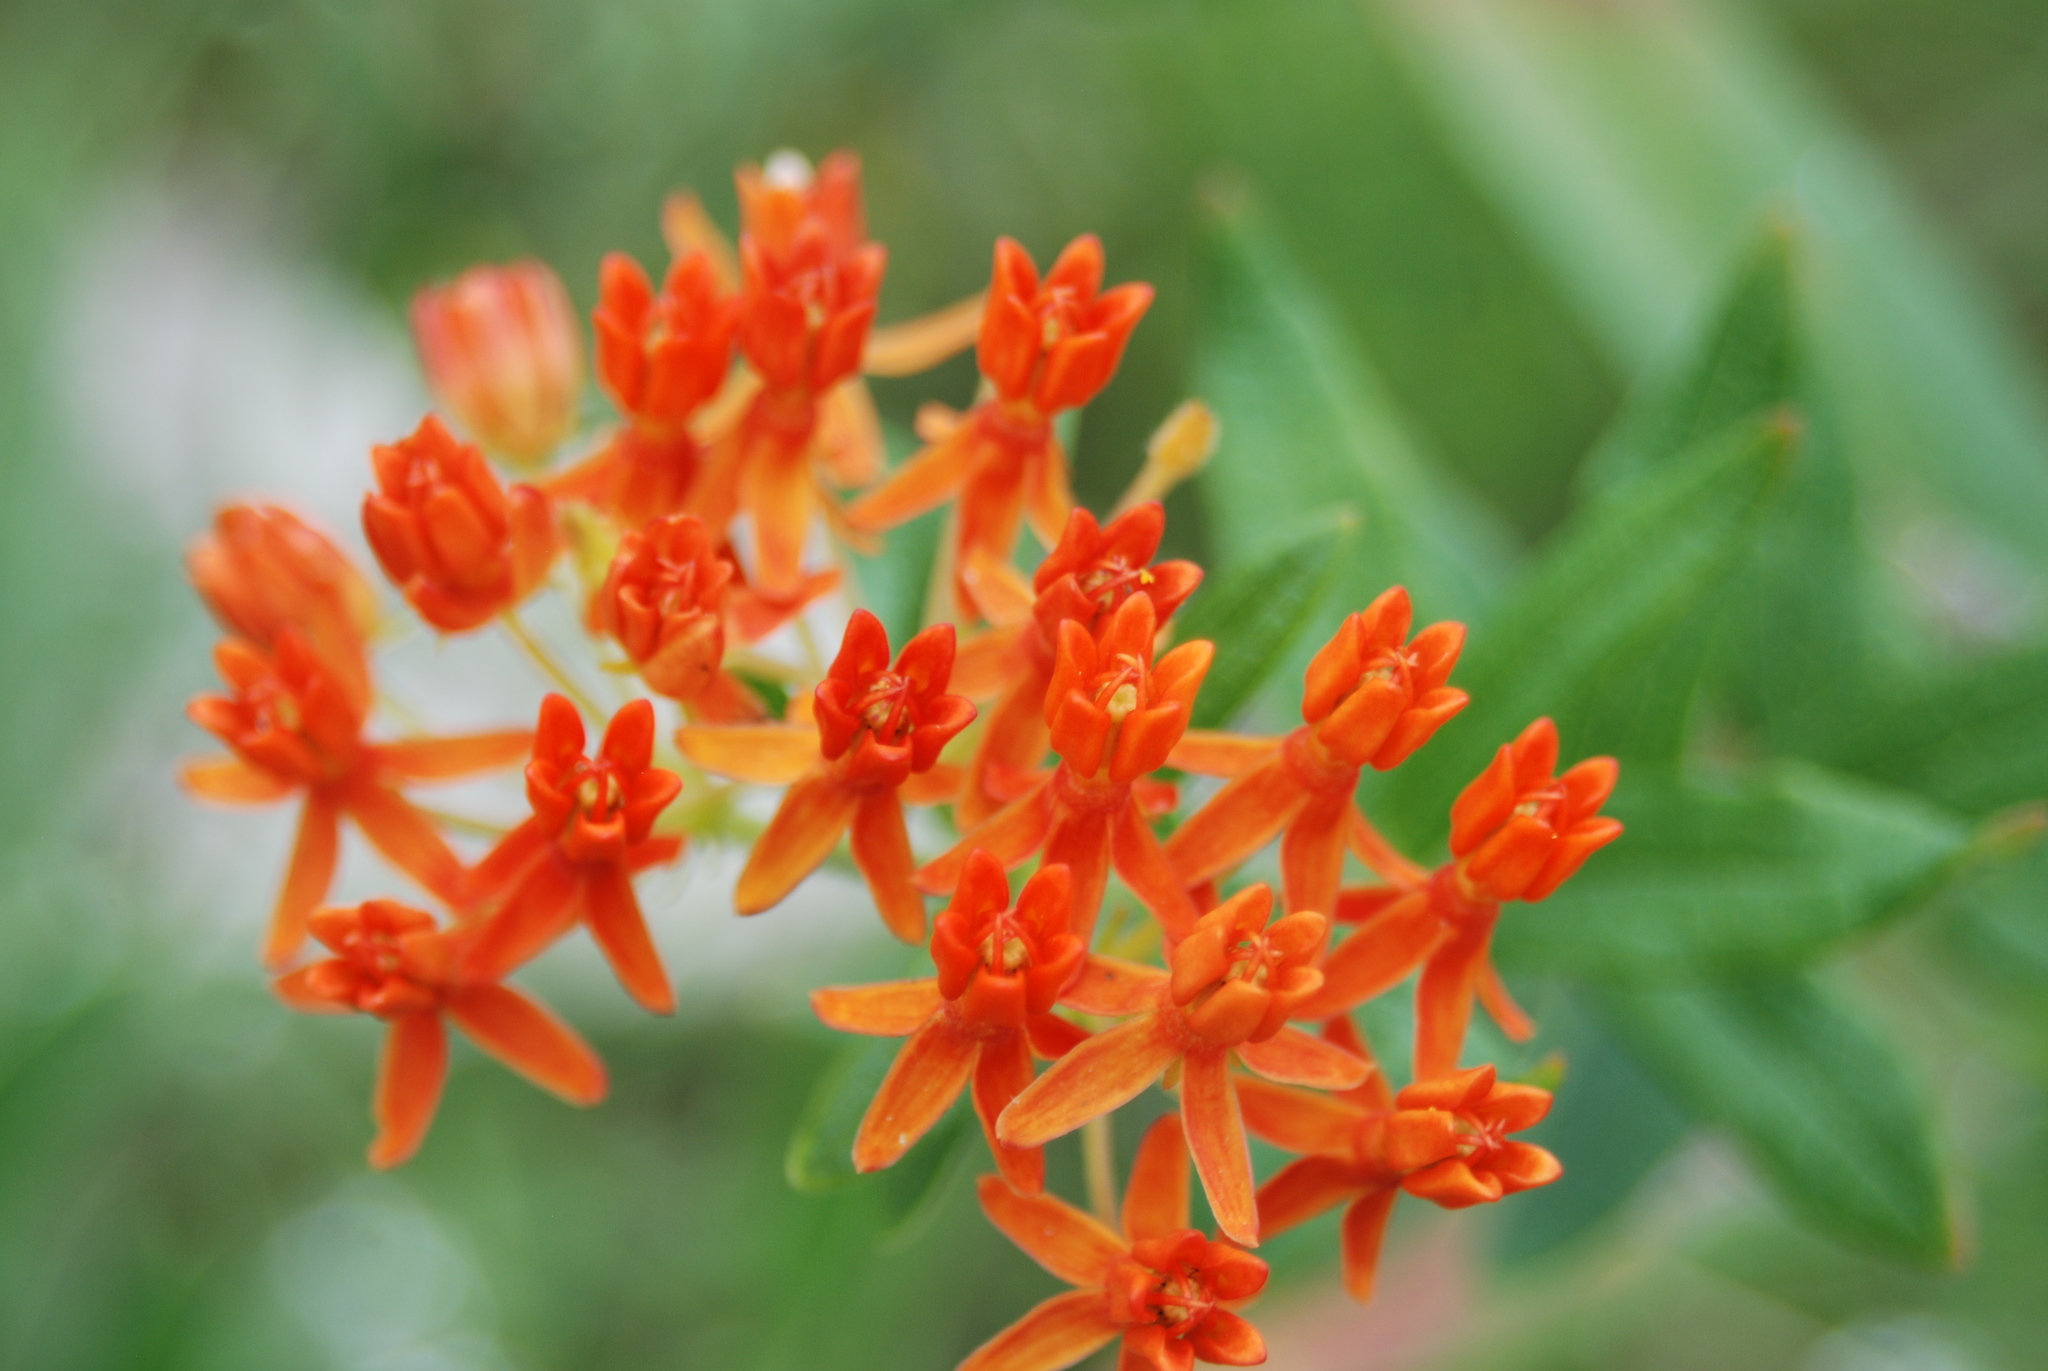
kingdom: Plantae
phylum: Tracheophyta
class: Magnoliopsida
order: Gentianales
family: Apocynaceae
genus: Asclepias
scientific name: Asclepias tuberosa
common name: Butterfly milkweed
